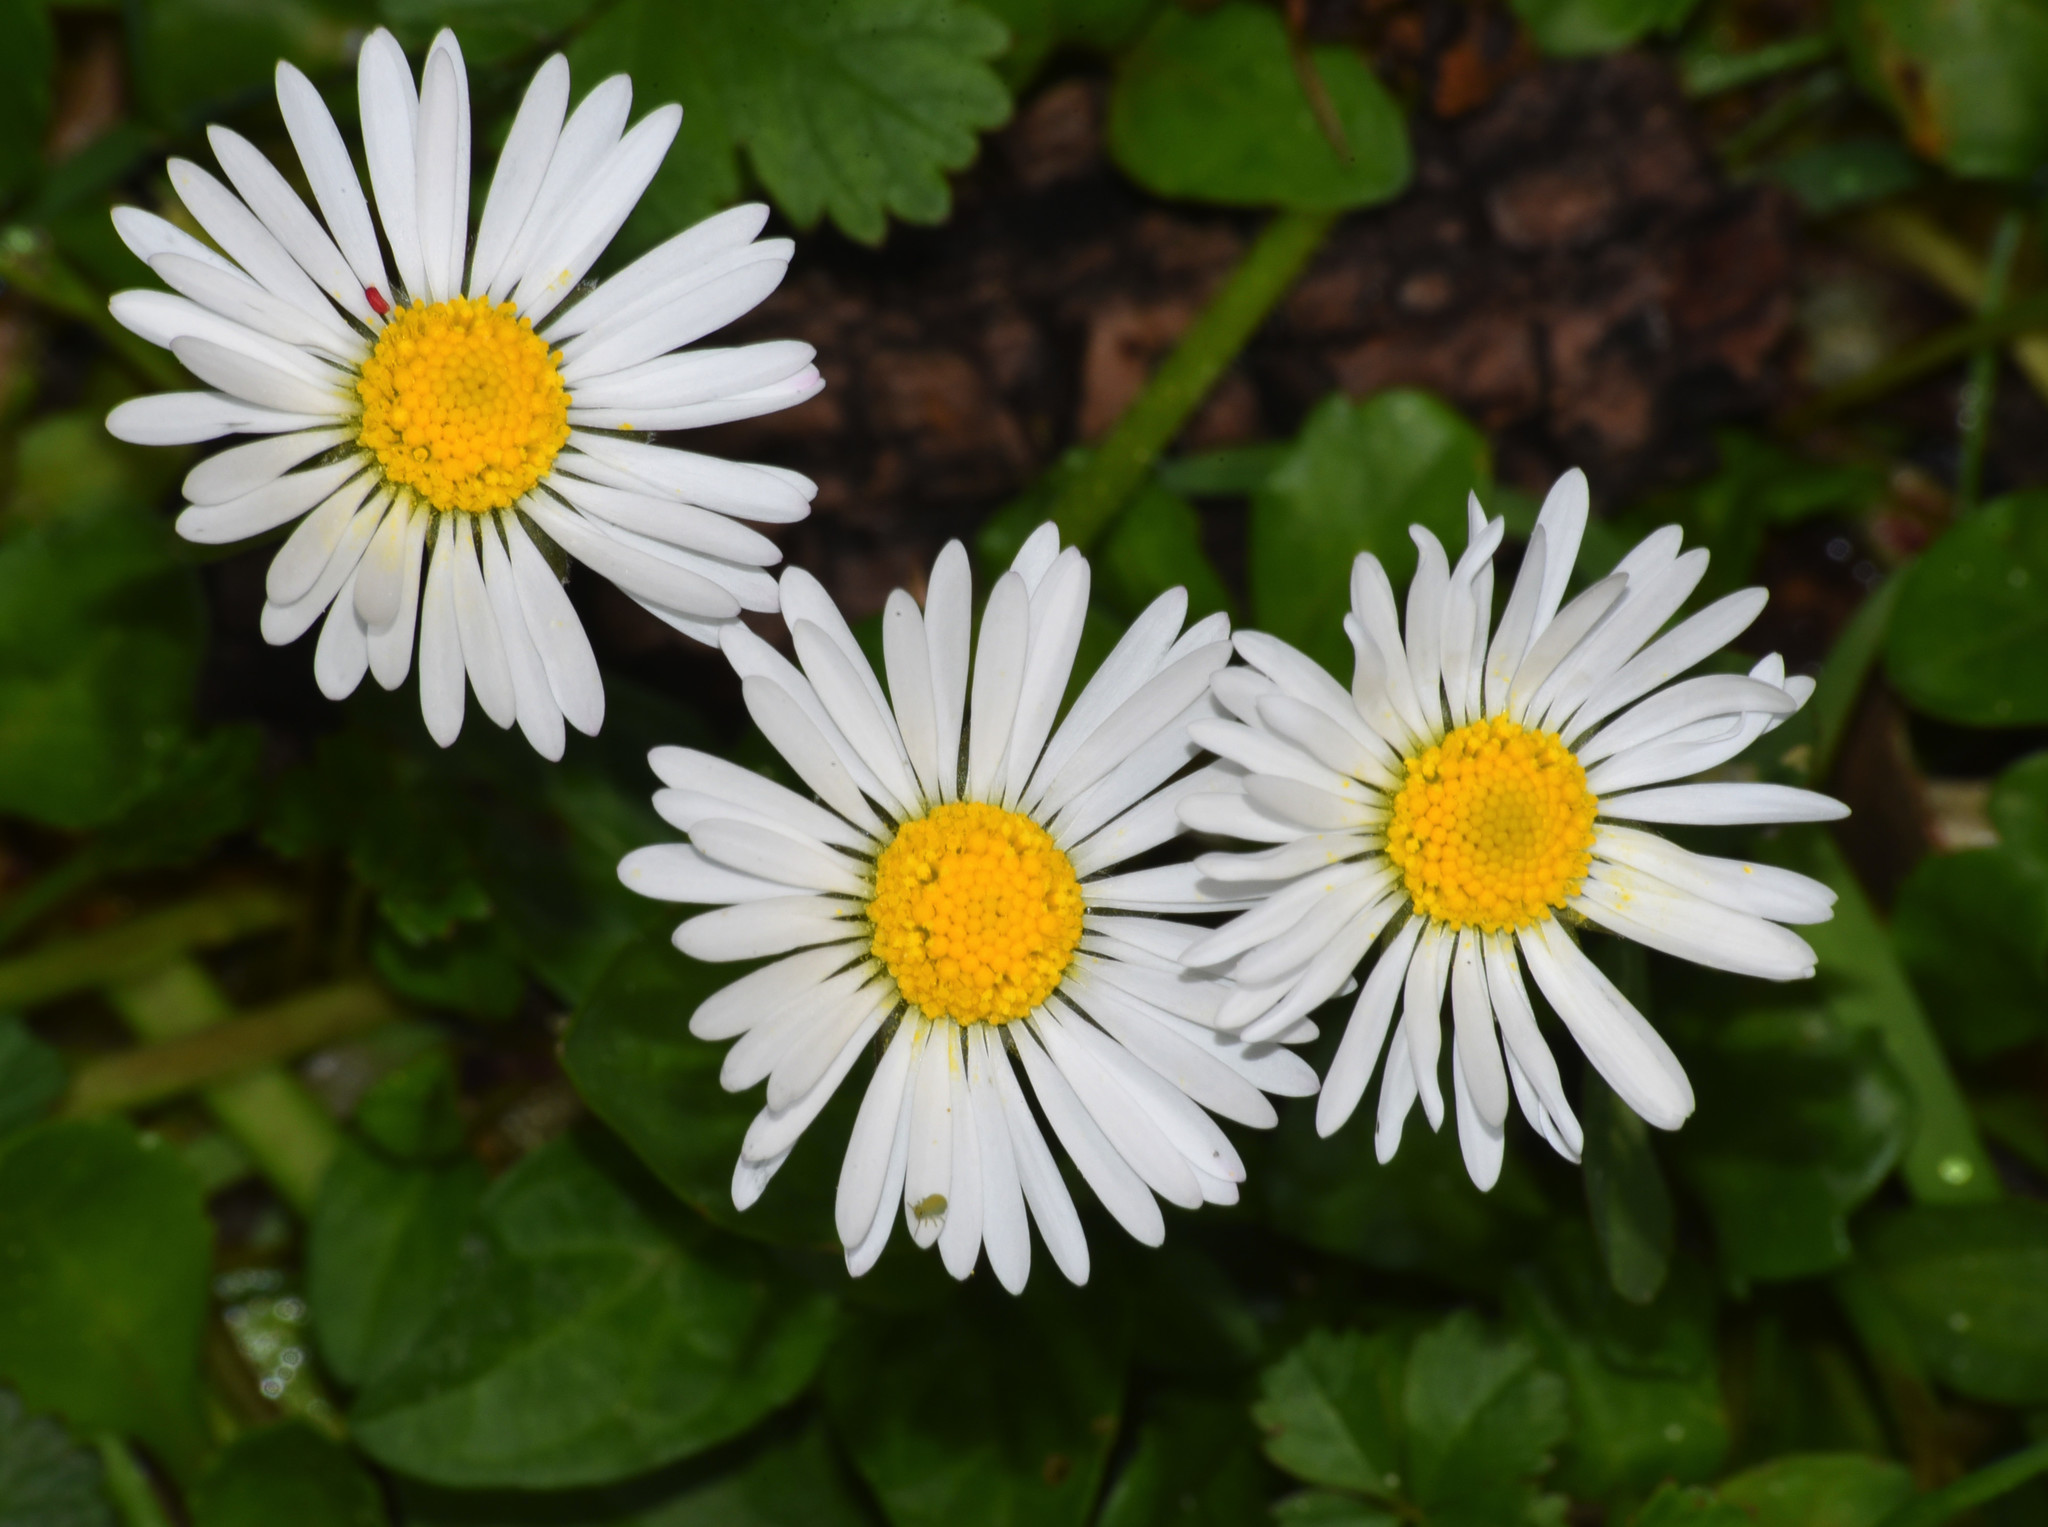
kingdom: Plantae
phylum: Tracheophyta
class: Magnoliopsida
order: Asterales
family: Asteraceae
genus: Bellis
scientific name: Bellis perennis
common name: Lawndaisy
